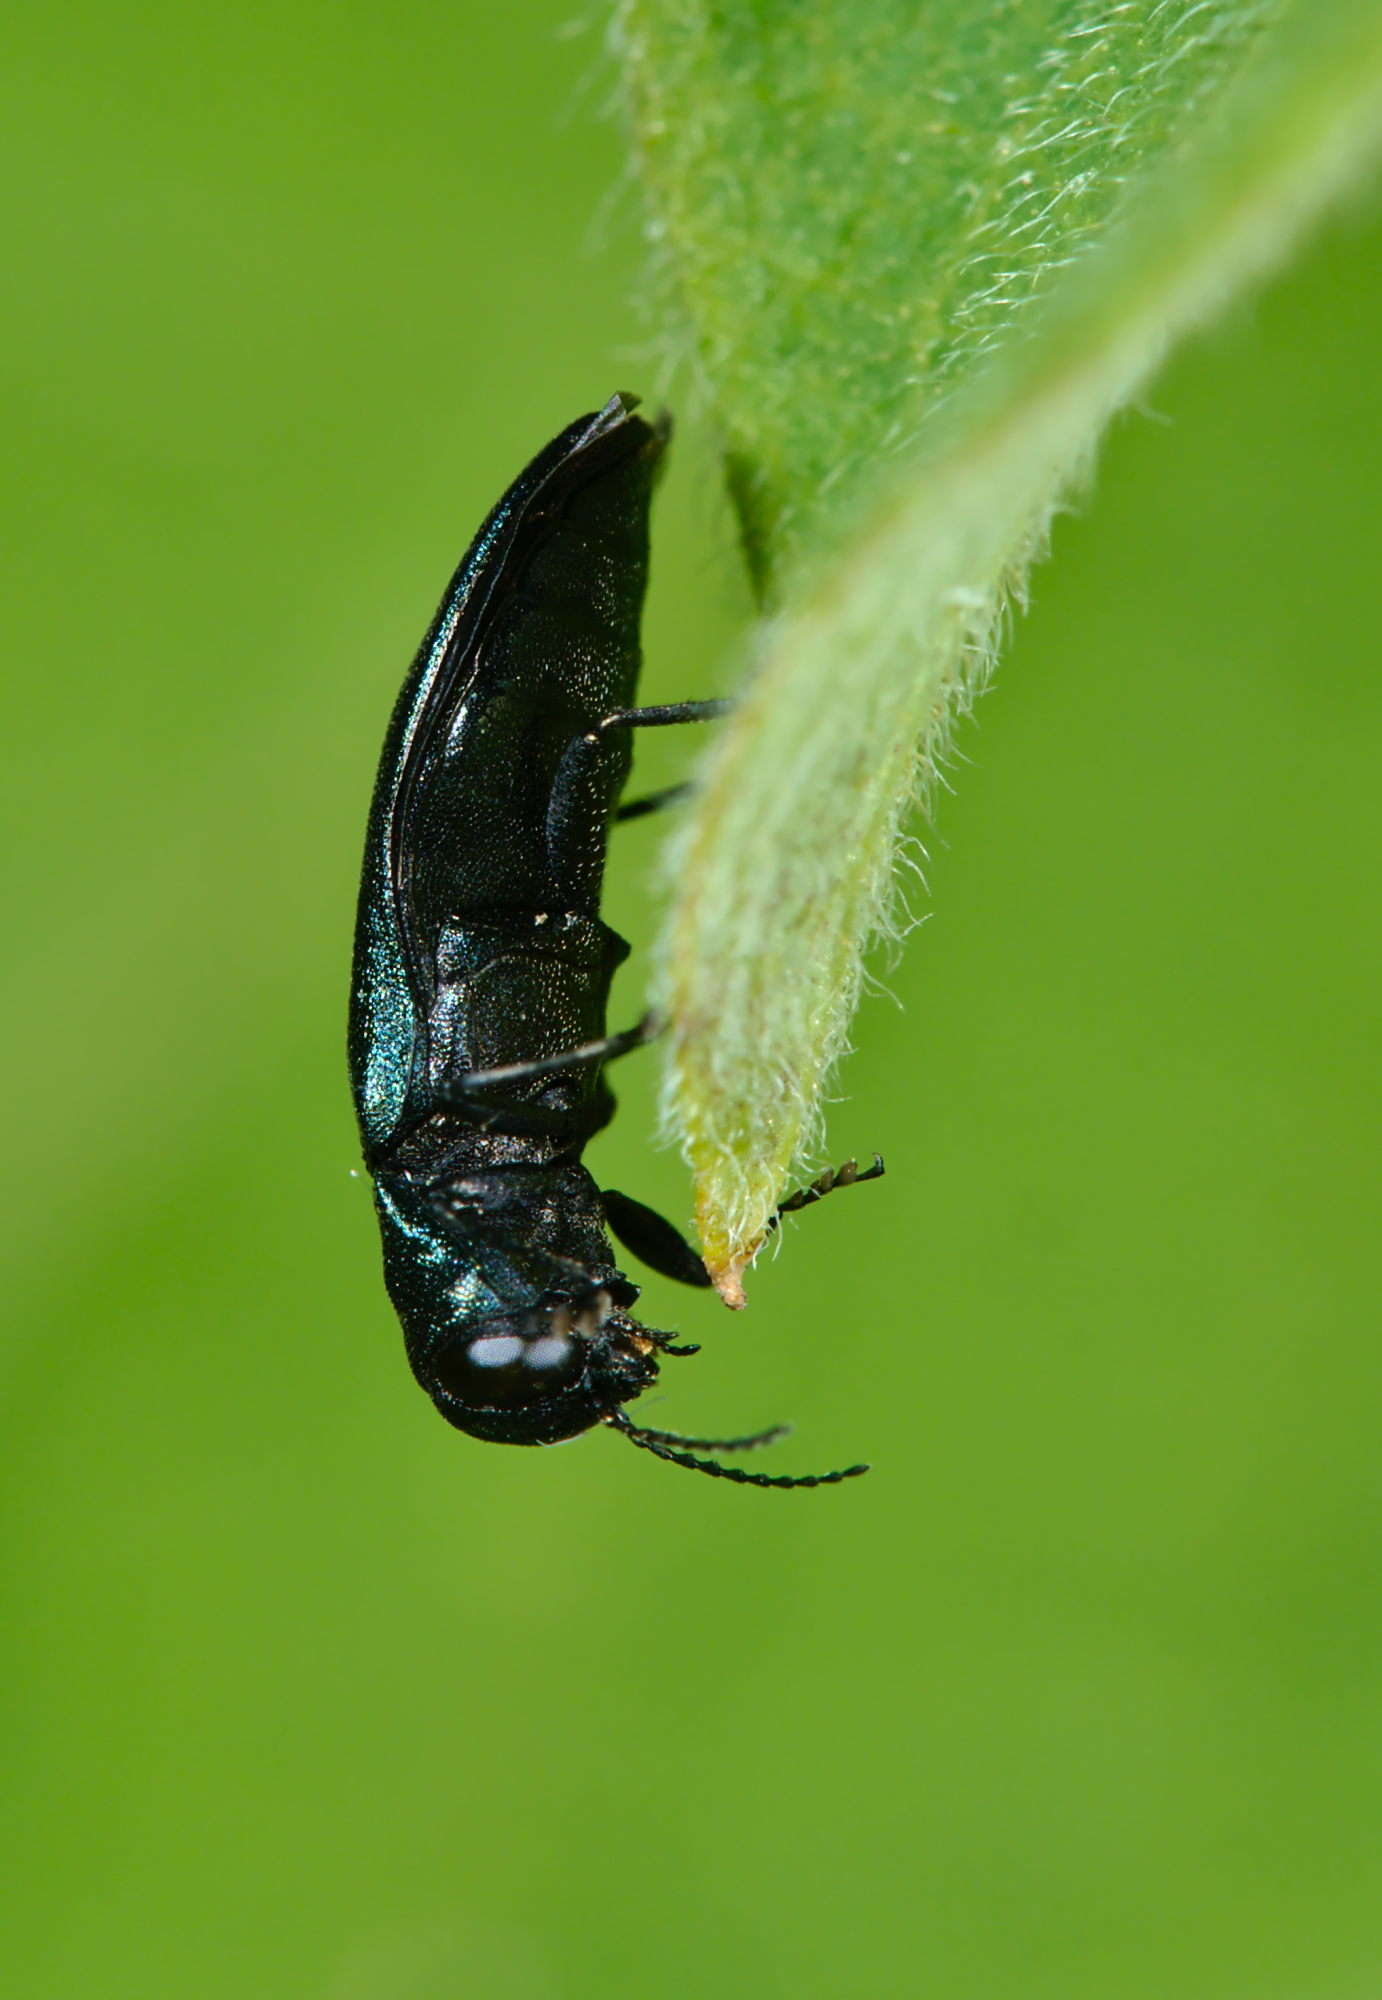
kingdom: Animalia
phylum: Arthropoda
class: Insecta
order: Coleoptera
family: Buprestidae
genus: Agrilus
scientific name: Agrilus cyanescens
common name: Bluish borer beetle
